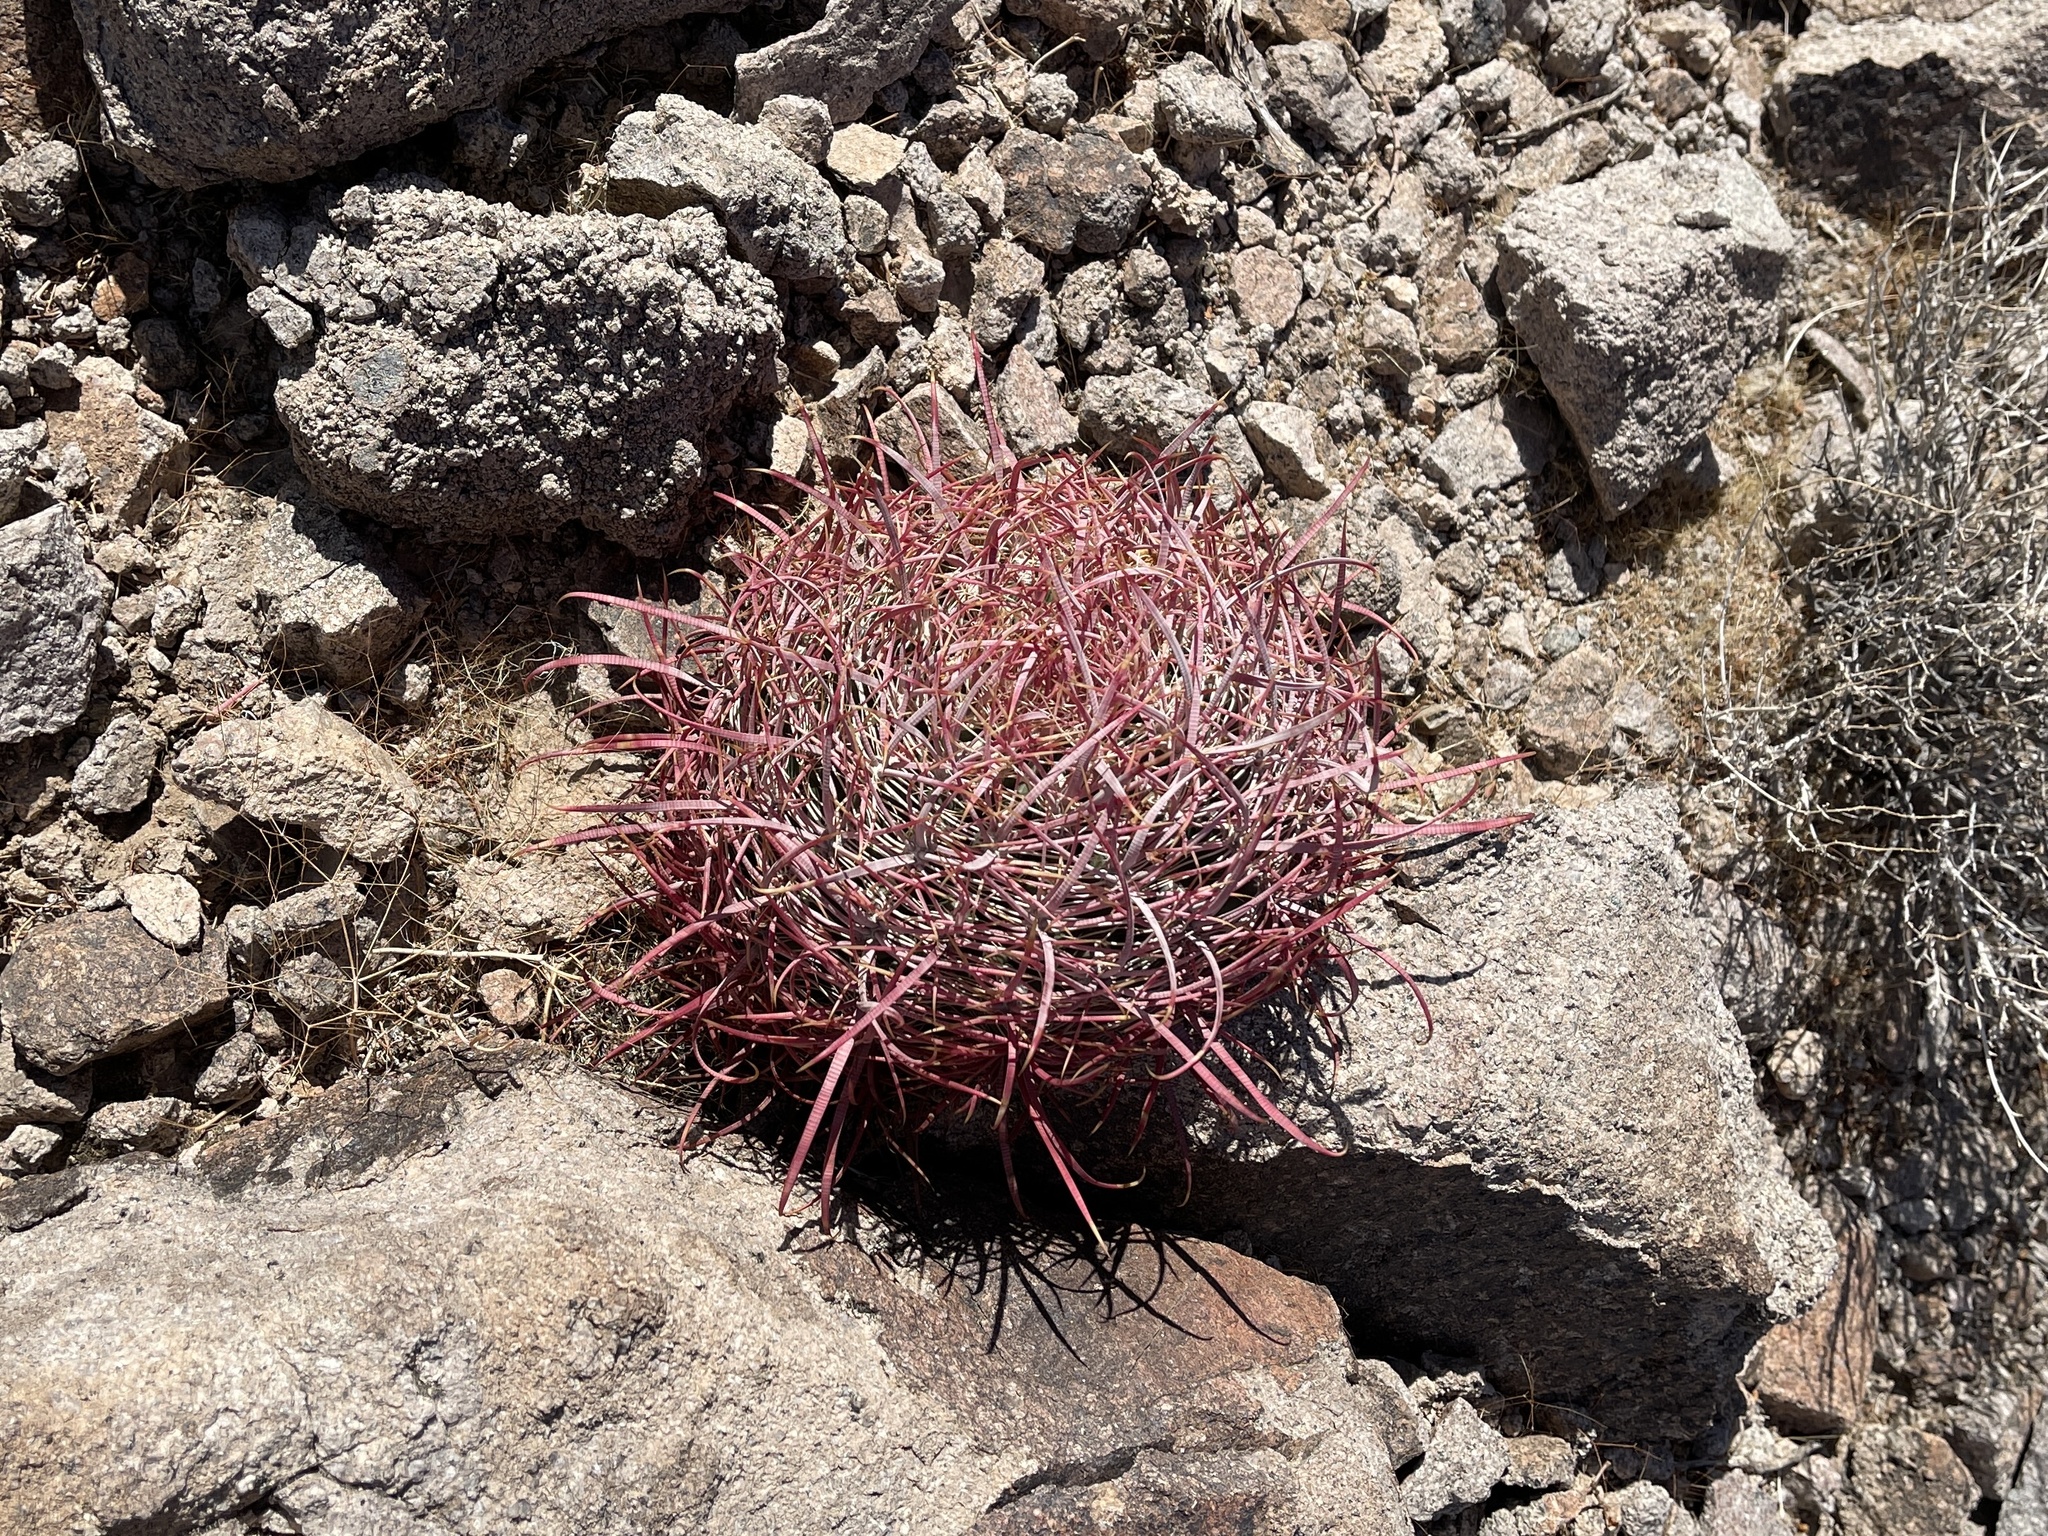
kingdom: Plantae
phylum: Tracheophyta
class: Magnoliopsida
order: Caryophyllales
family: Cactaceae
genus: Ferocactus
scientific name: Ferocactus cylindraceus
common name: California barrel cactus
